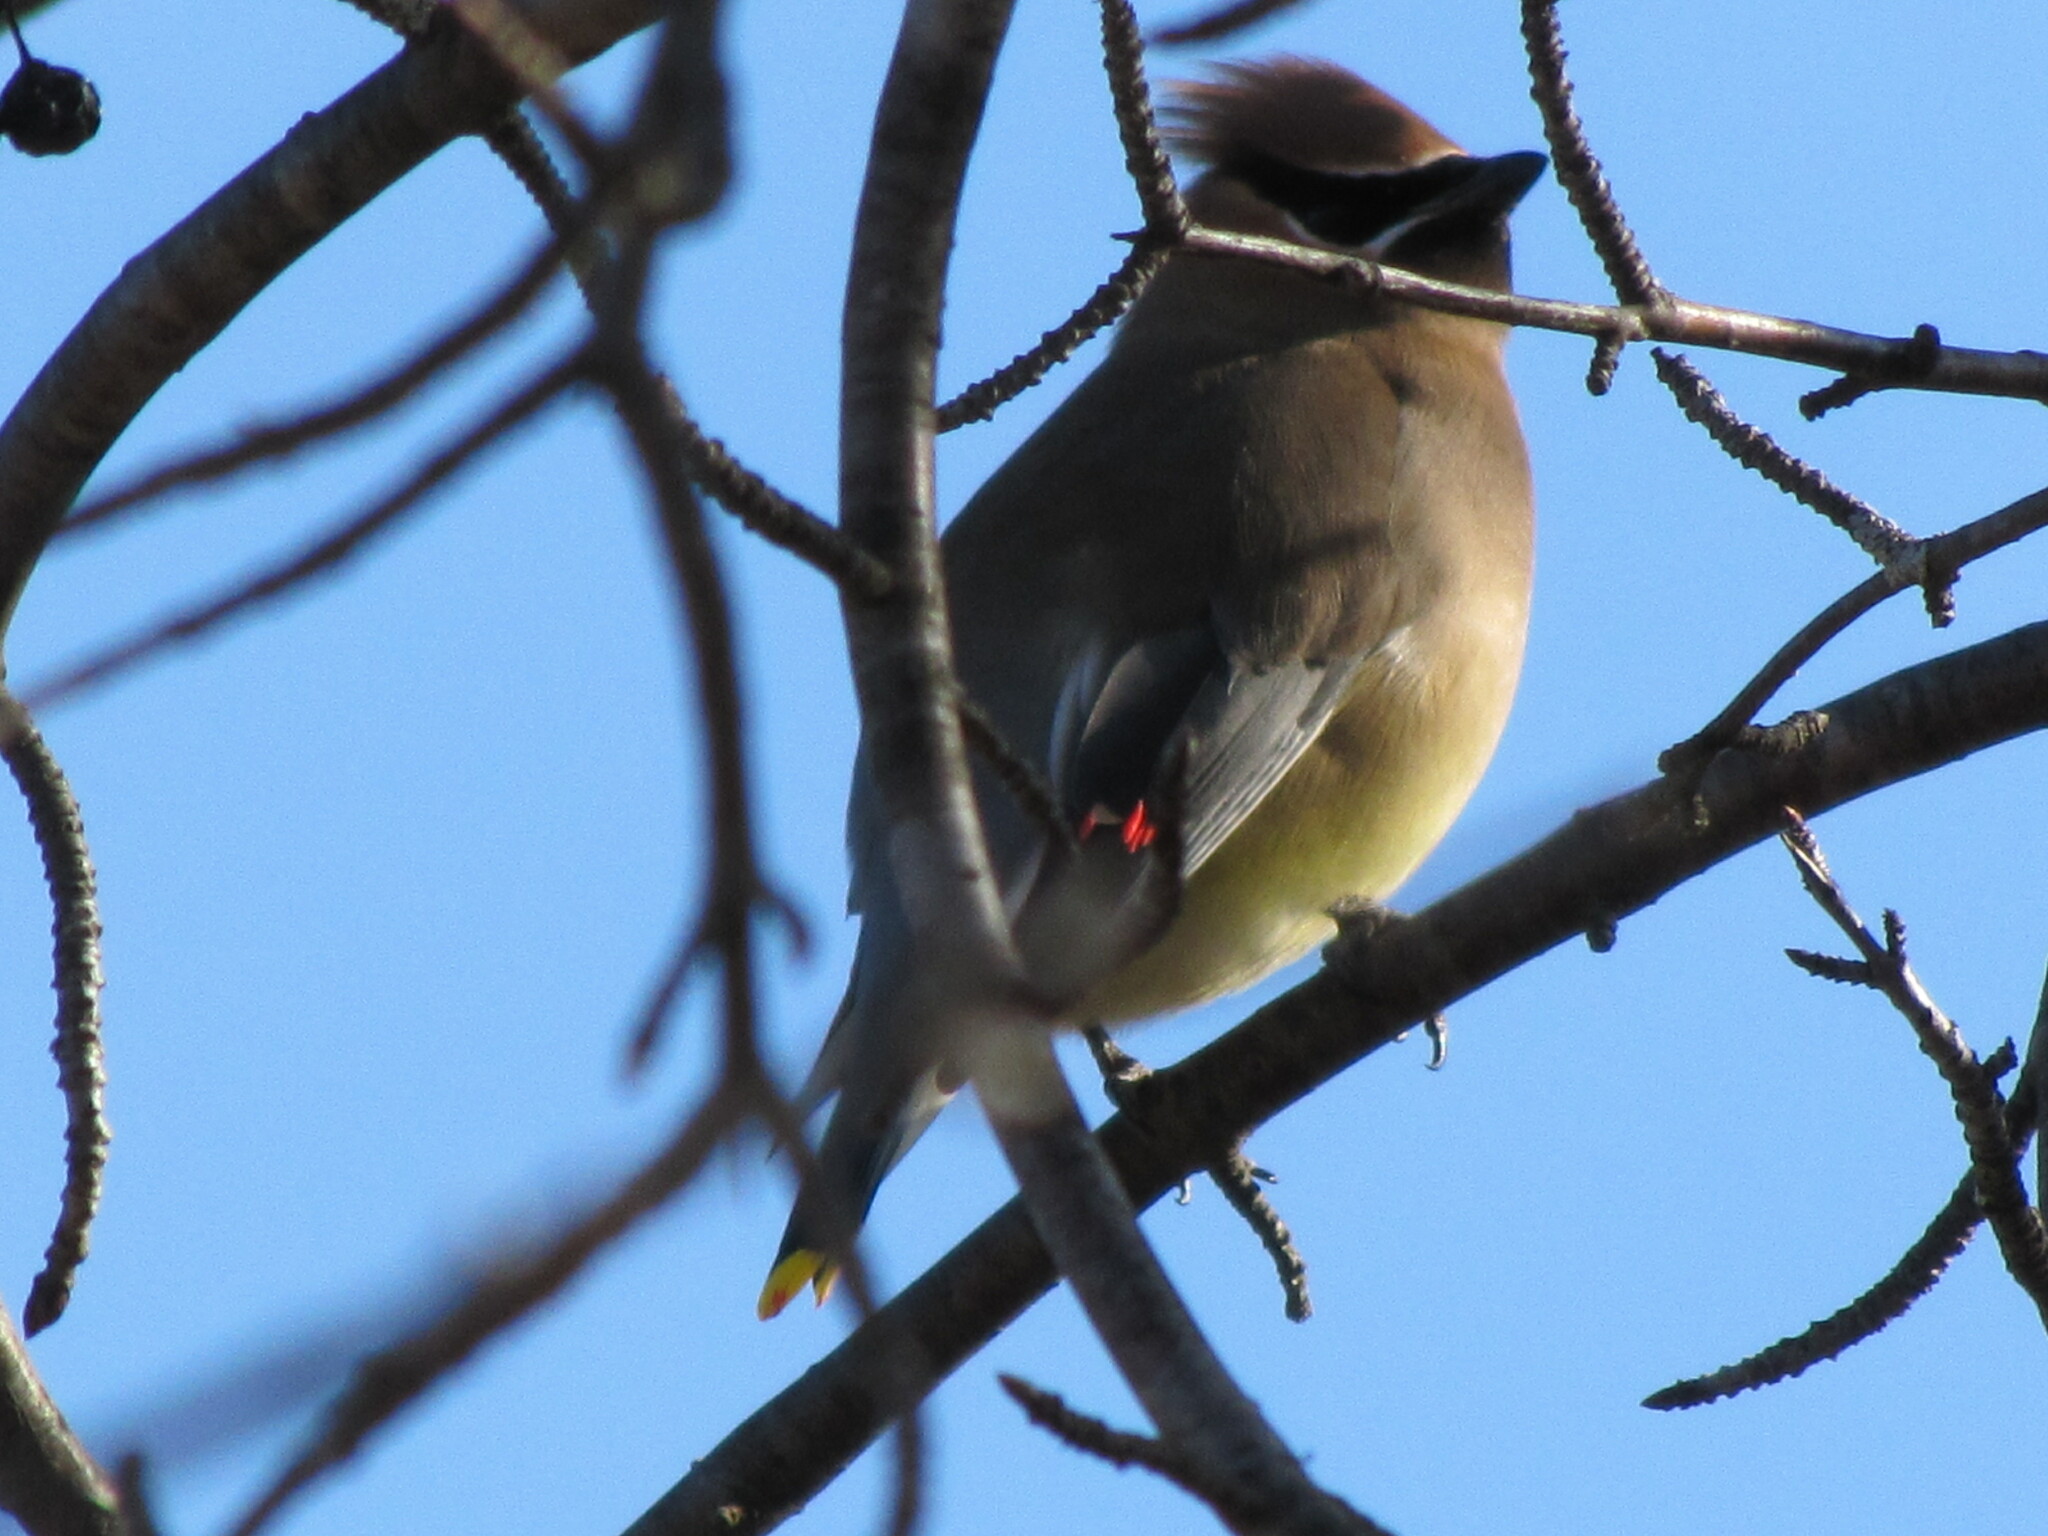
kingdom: Animalia
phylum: Chordata
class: Aves
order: Passeriformes
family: Bombycillidae
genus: Bombycilla
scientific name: Bombycilla cedrorum
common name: Cedar waxwing
